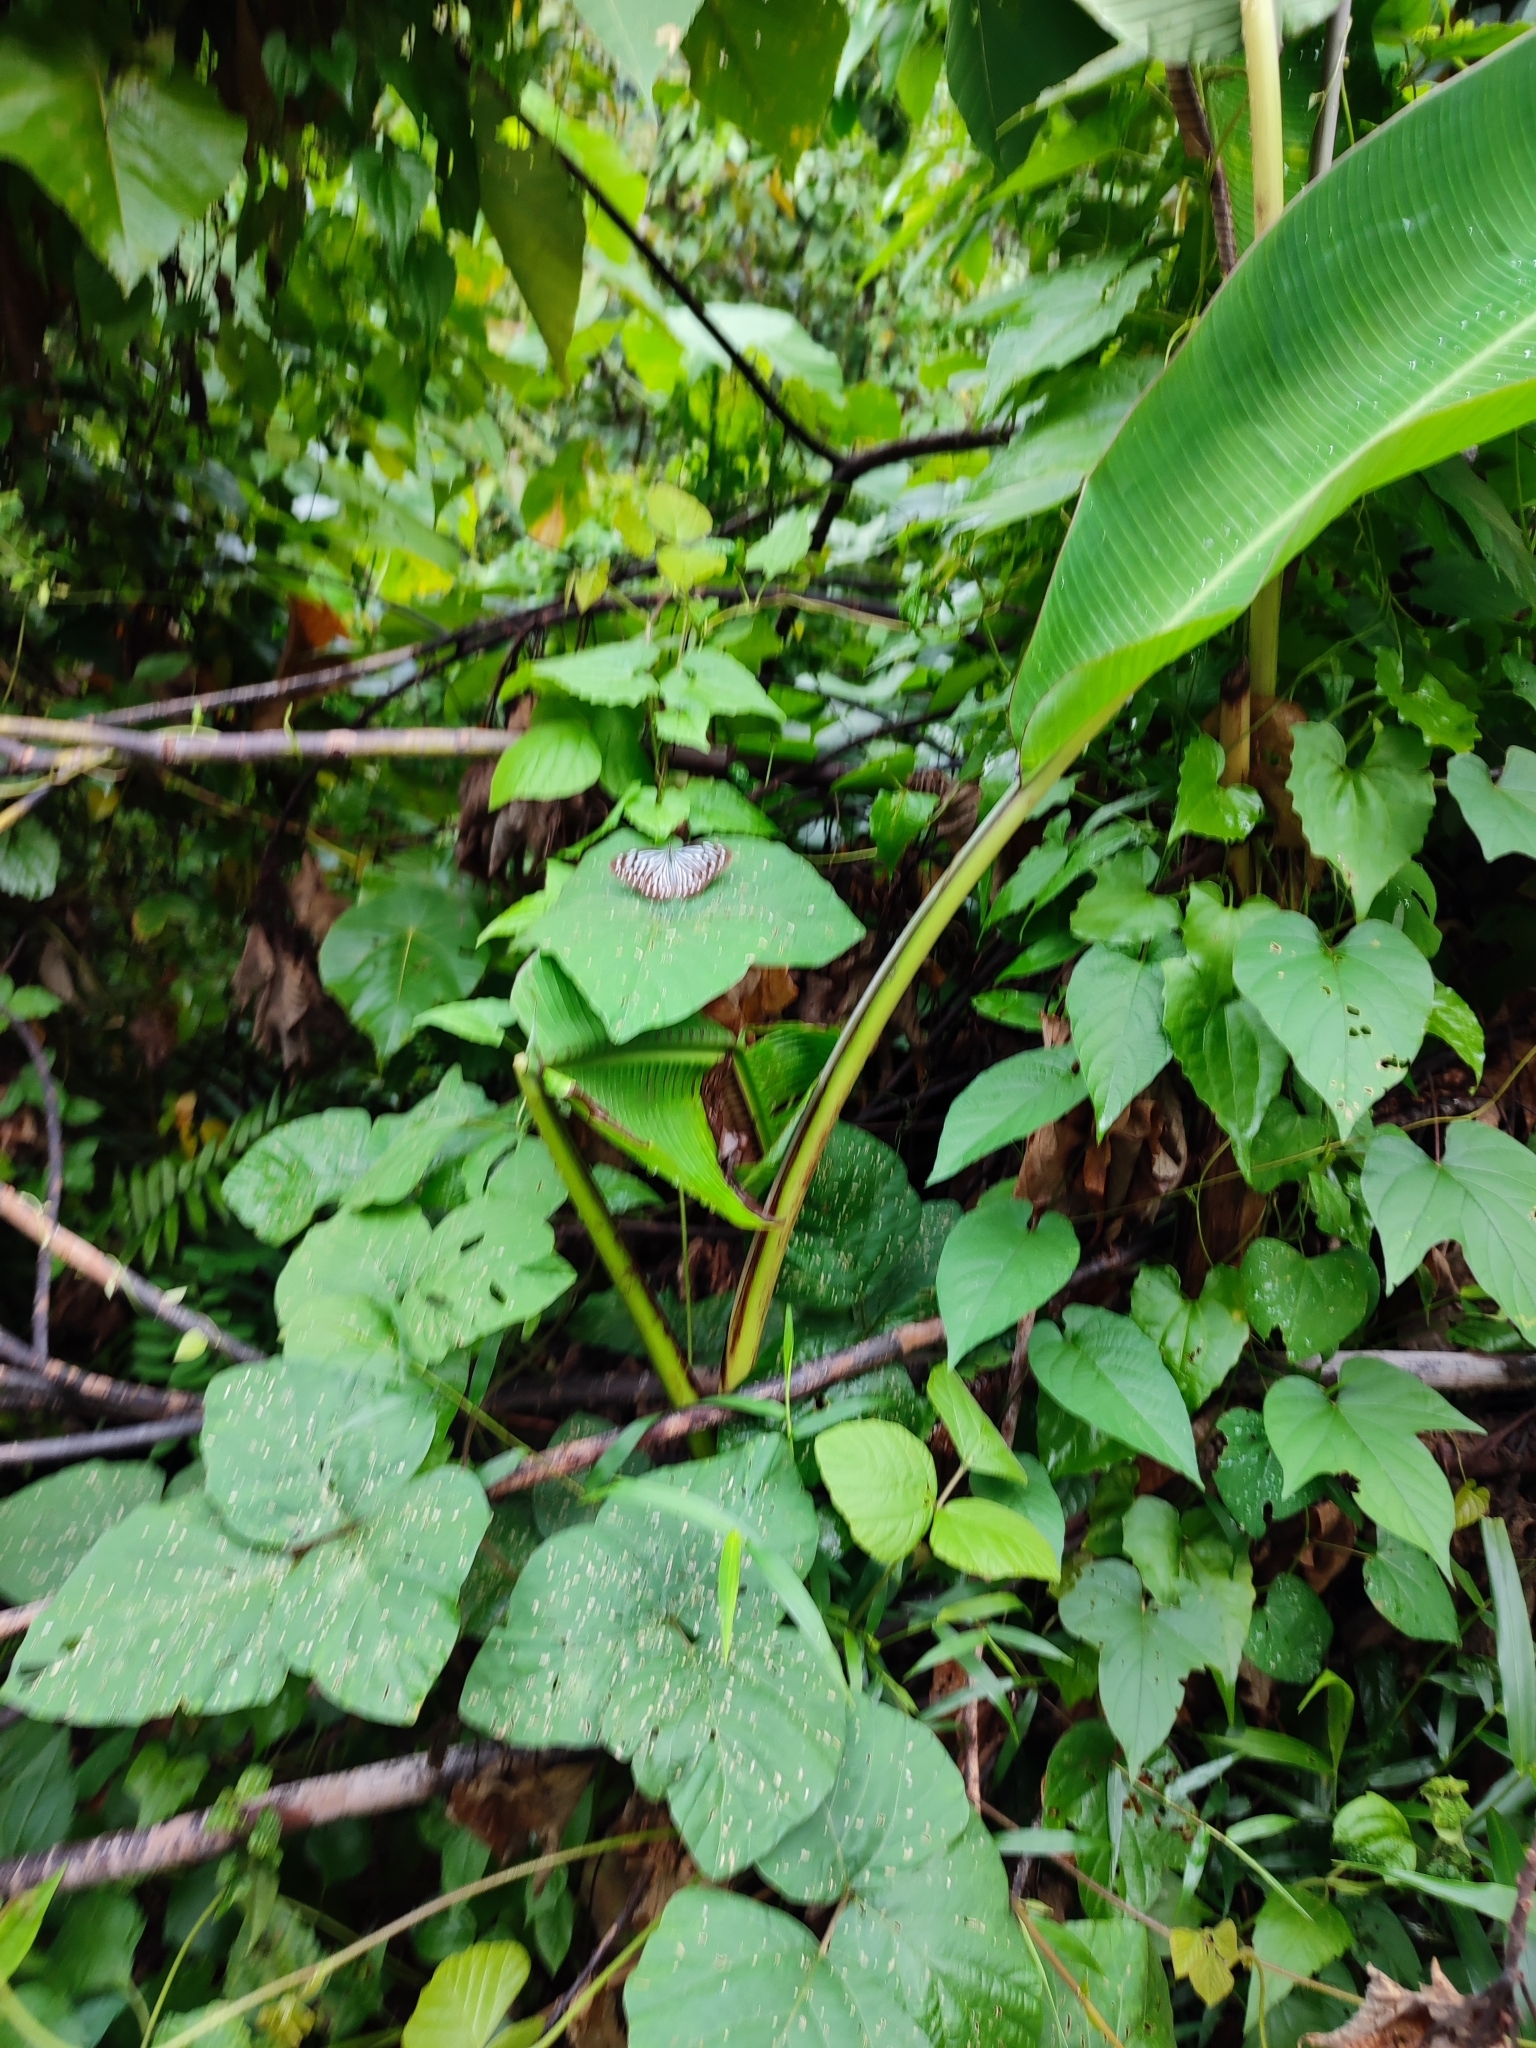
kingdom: Animalia
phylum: Arthropoda
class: Insecta
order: Lepidoptera
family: Pieridae
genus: Pareronia
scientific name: Pareronia hippia
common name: Indian wanderer
